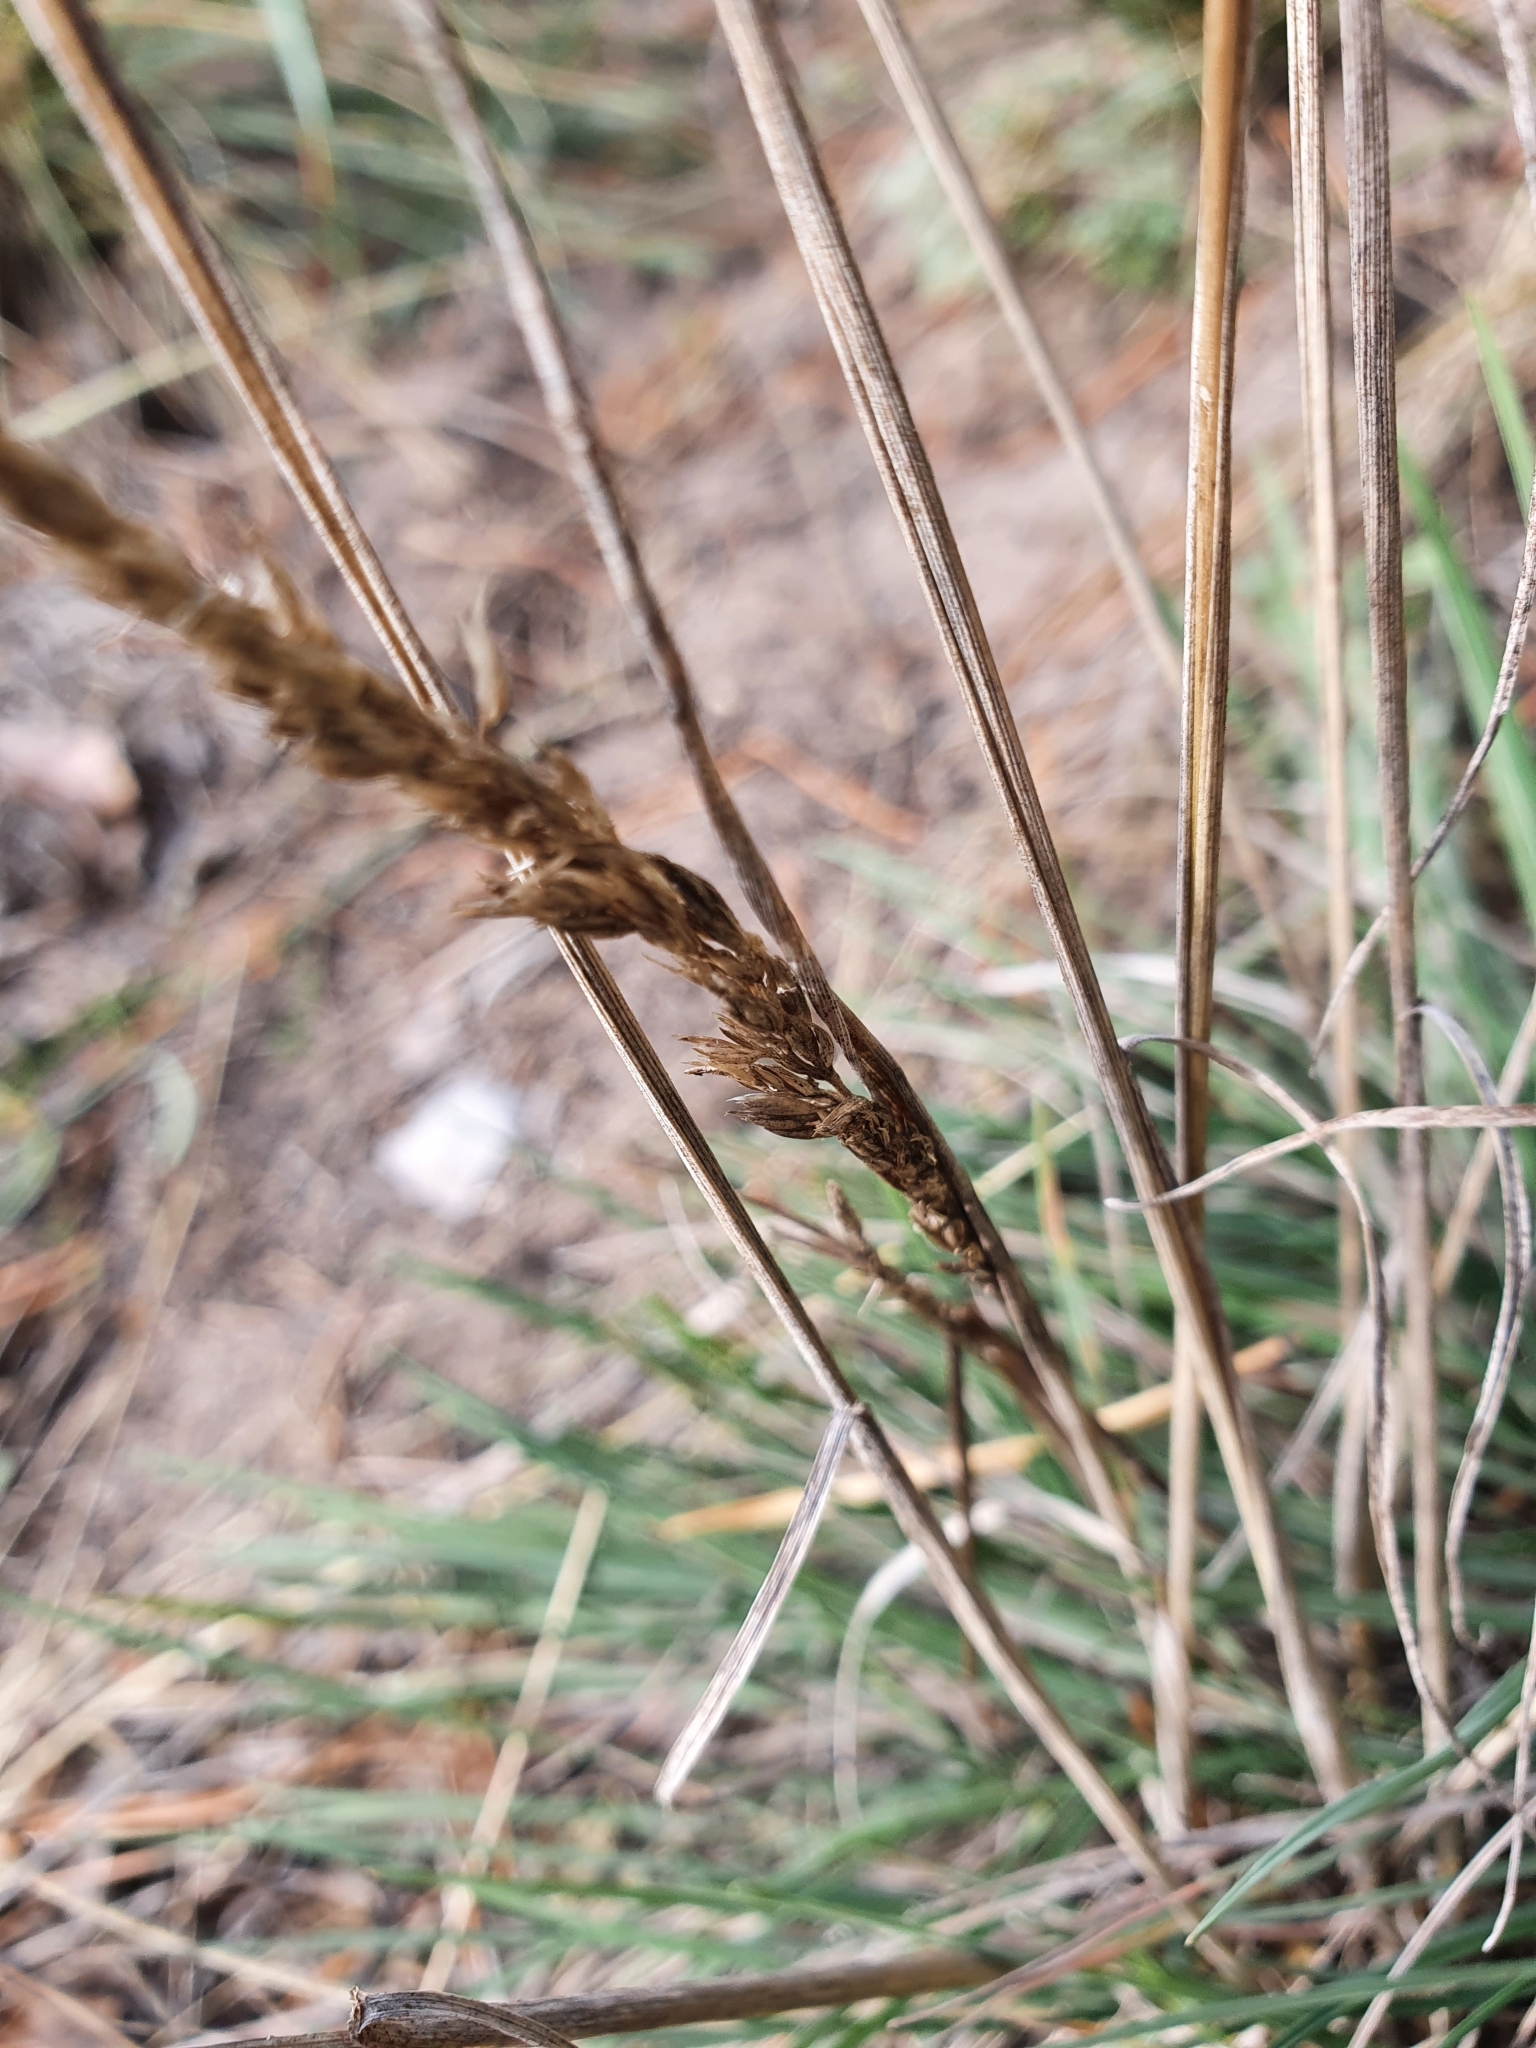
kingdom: Plantae
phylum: Tracheophyta
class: Liliopsida
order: Poales
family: Poaceae
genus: Koeleria
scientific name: Koeleria glauca
